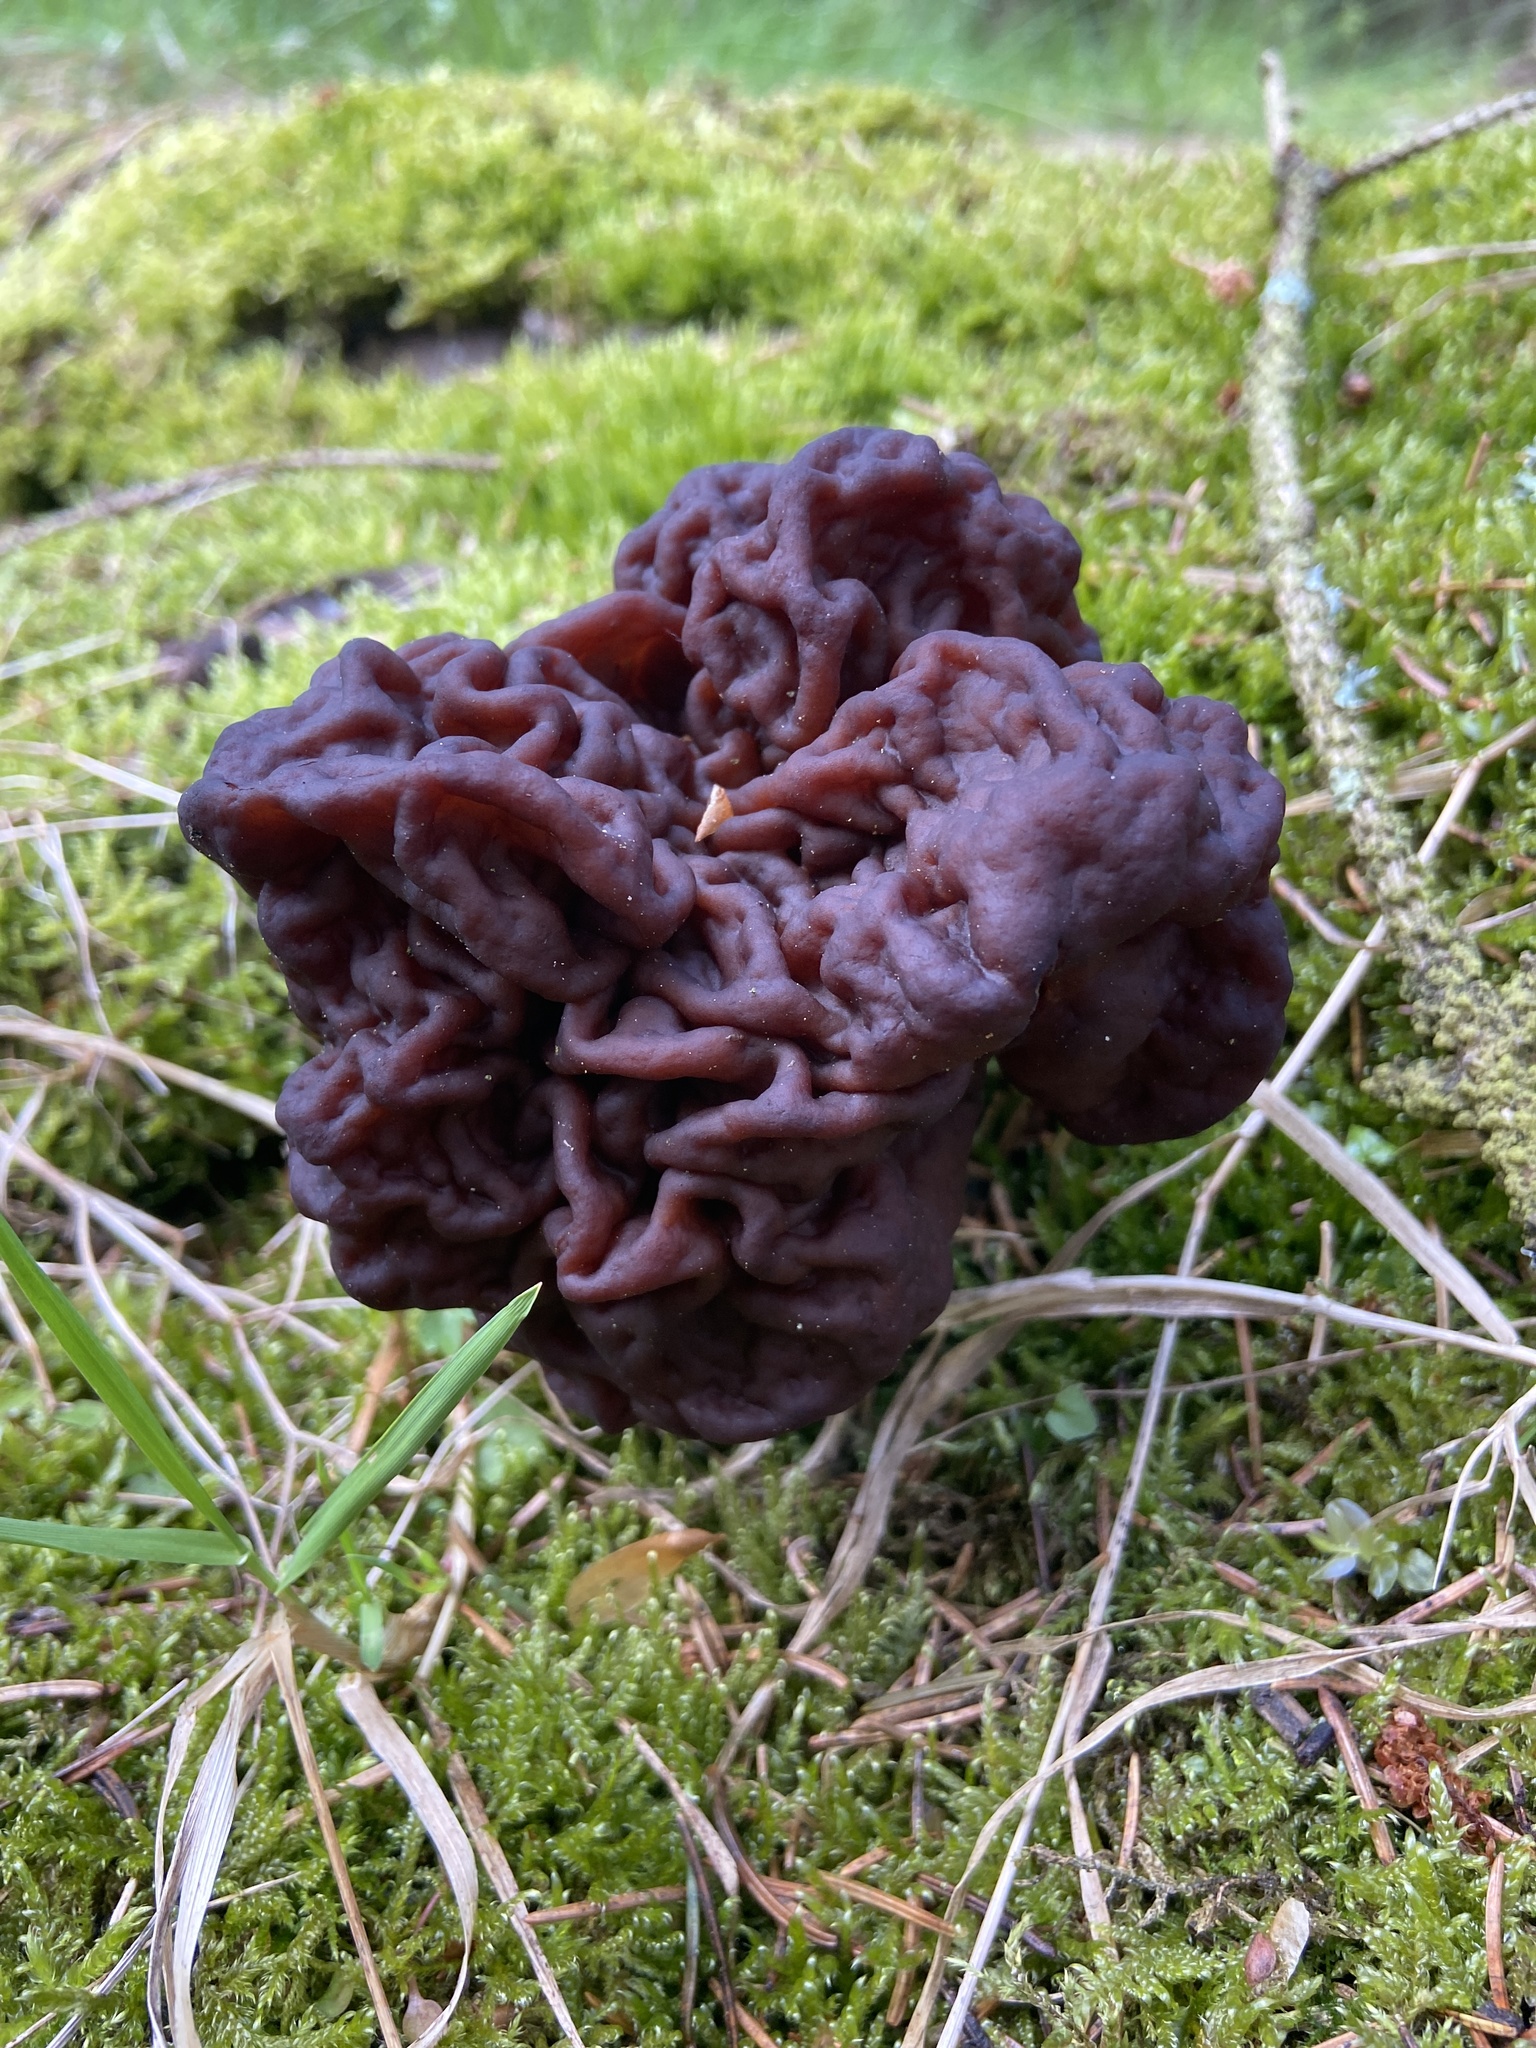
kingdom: Fungi
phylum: Ascomycota
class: Pezizomycetes
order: Pezizales
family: Discinaceae
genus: Gyromitra
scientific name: Gyromitra esculenta
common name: False morel
